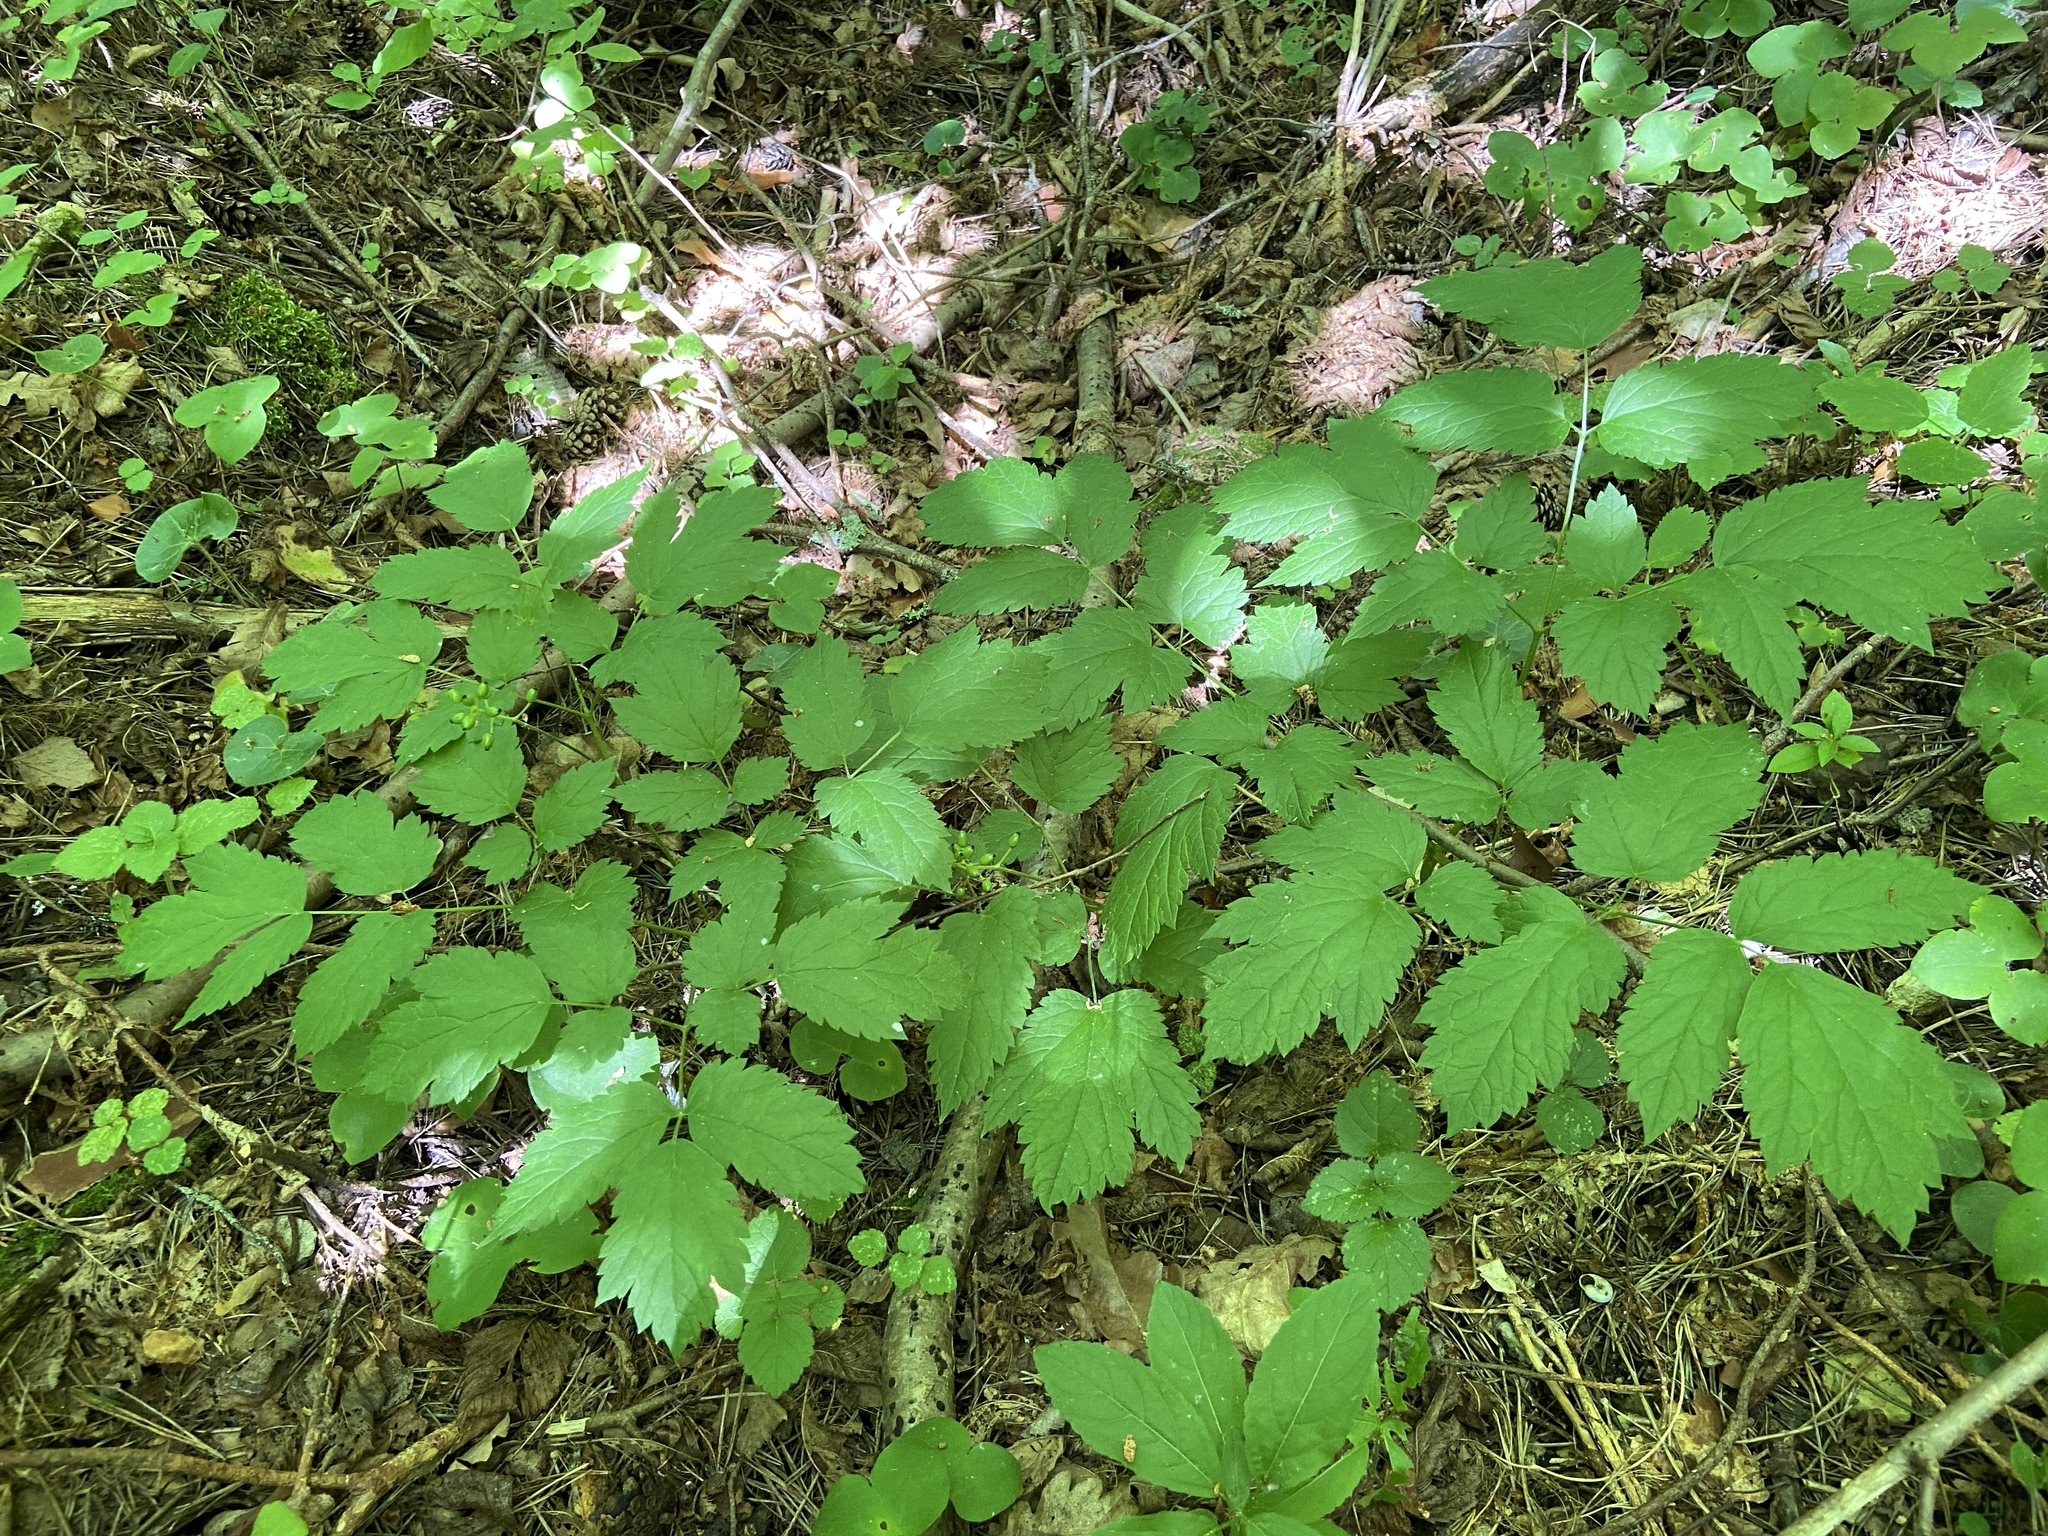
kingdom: Plantae
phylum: Tracheophyta
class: Magnoliopsida
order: Ranunculales
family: Ranunculaceae
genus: Actaea
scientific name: Actaea spicata
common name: Baneberry
